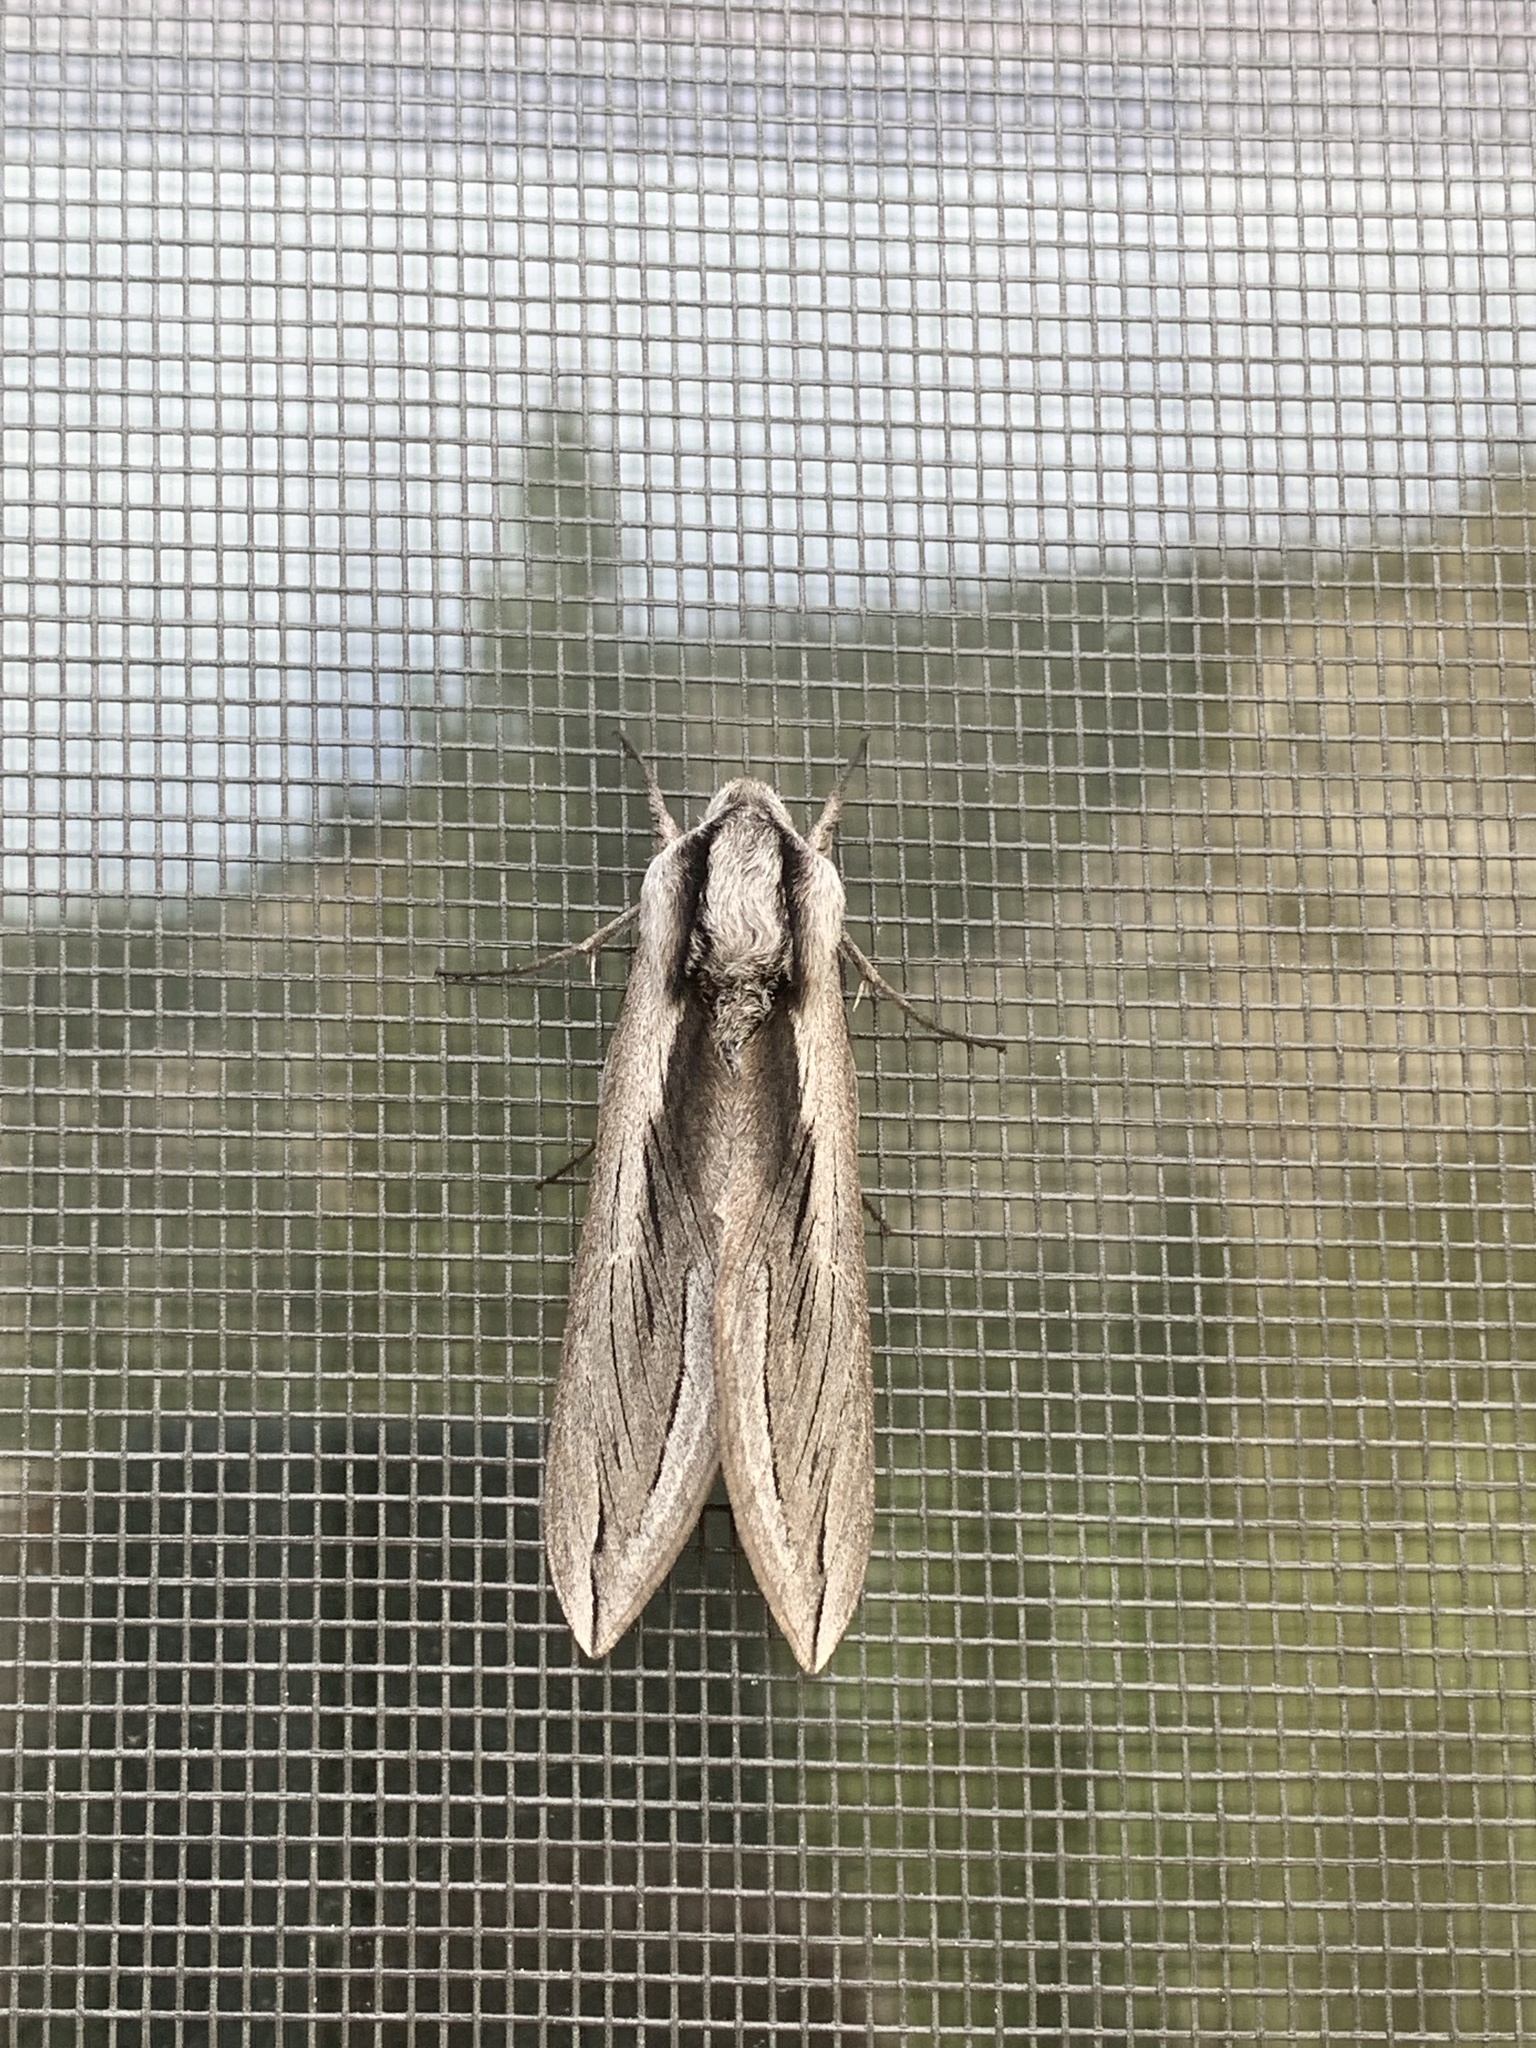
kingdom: Animalia
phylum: Arthropoda
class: Insecta
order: Lepidoptera
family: Sphingidae
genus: Sphinx
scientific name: Sphinx vashti
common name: Snowberry sphinx
